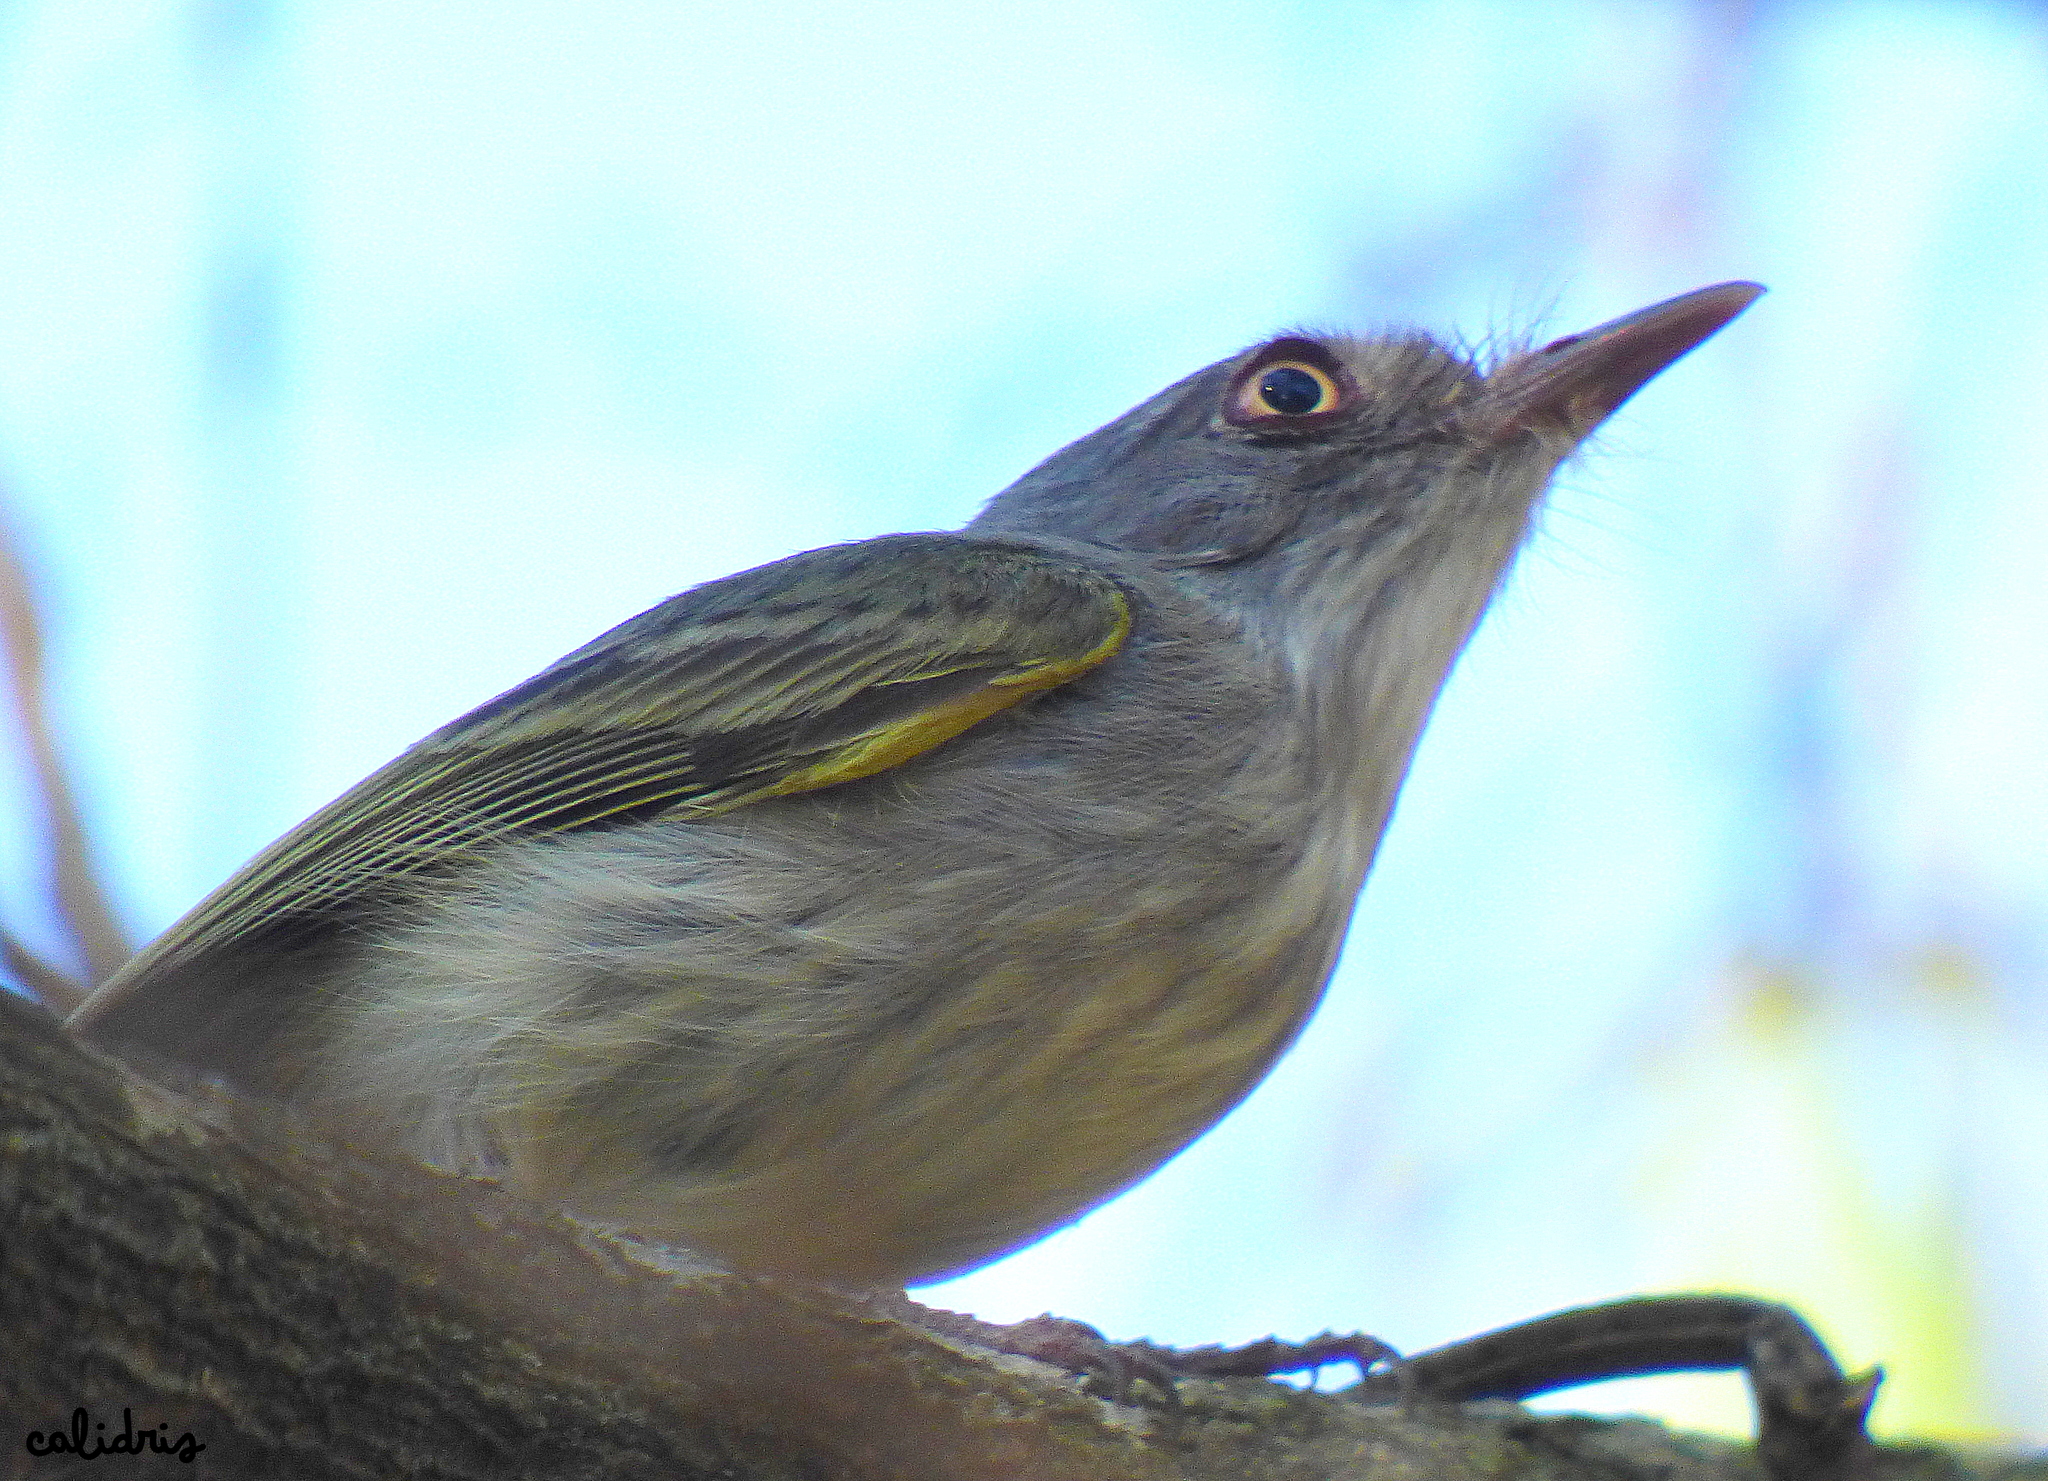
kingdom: Animalia
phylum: Chordata
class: Aves
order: Passeriformes
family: Tyrannidae
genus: Hemitriccus
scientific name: Hemitriccus margaritaceiventer
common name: Pearly-vented tody-tyrant
